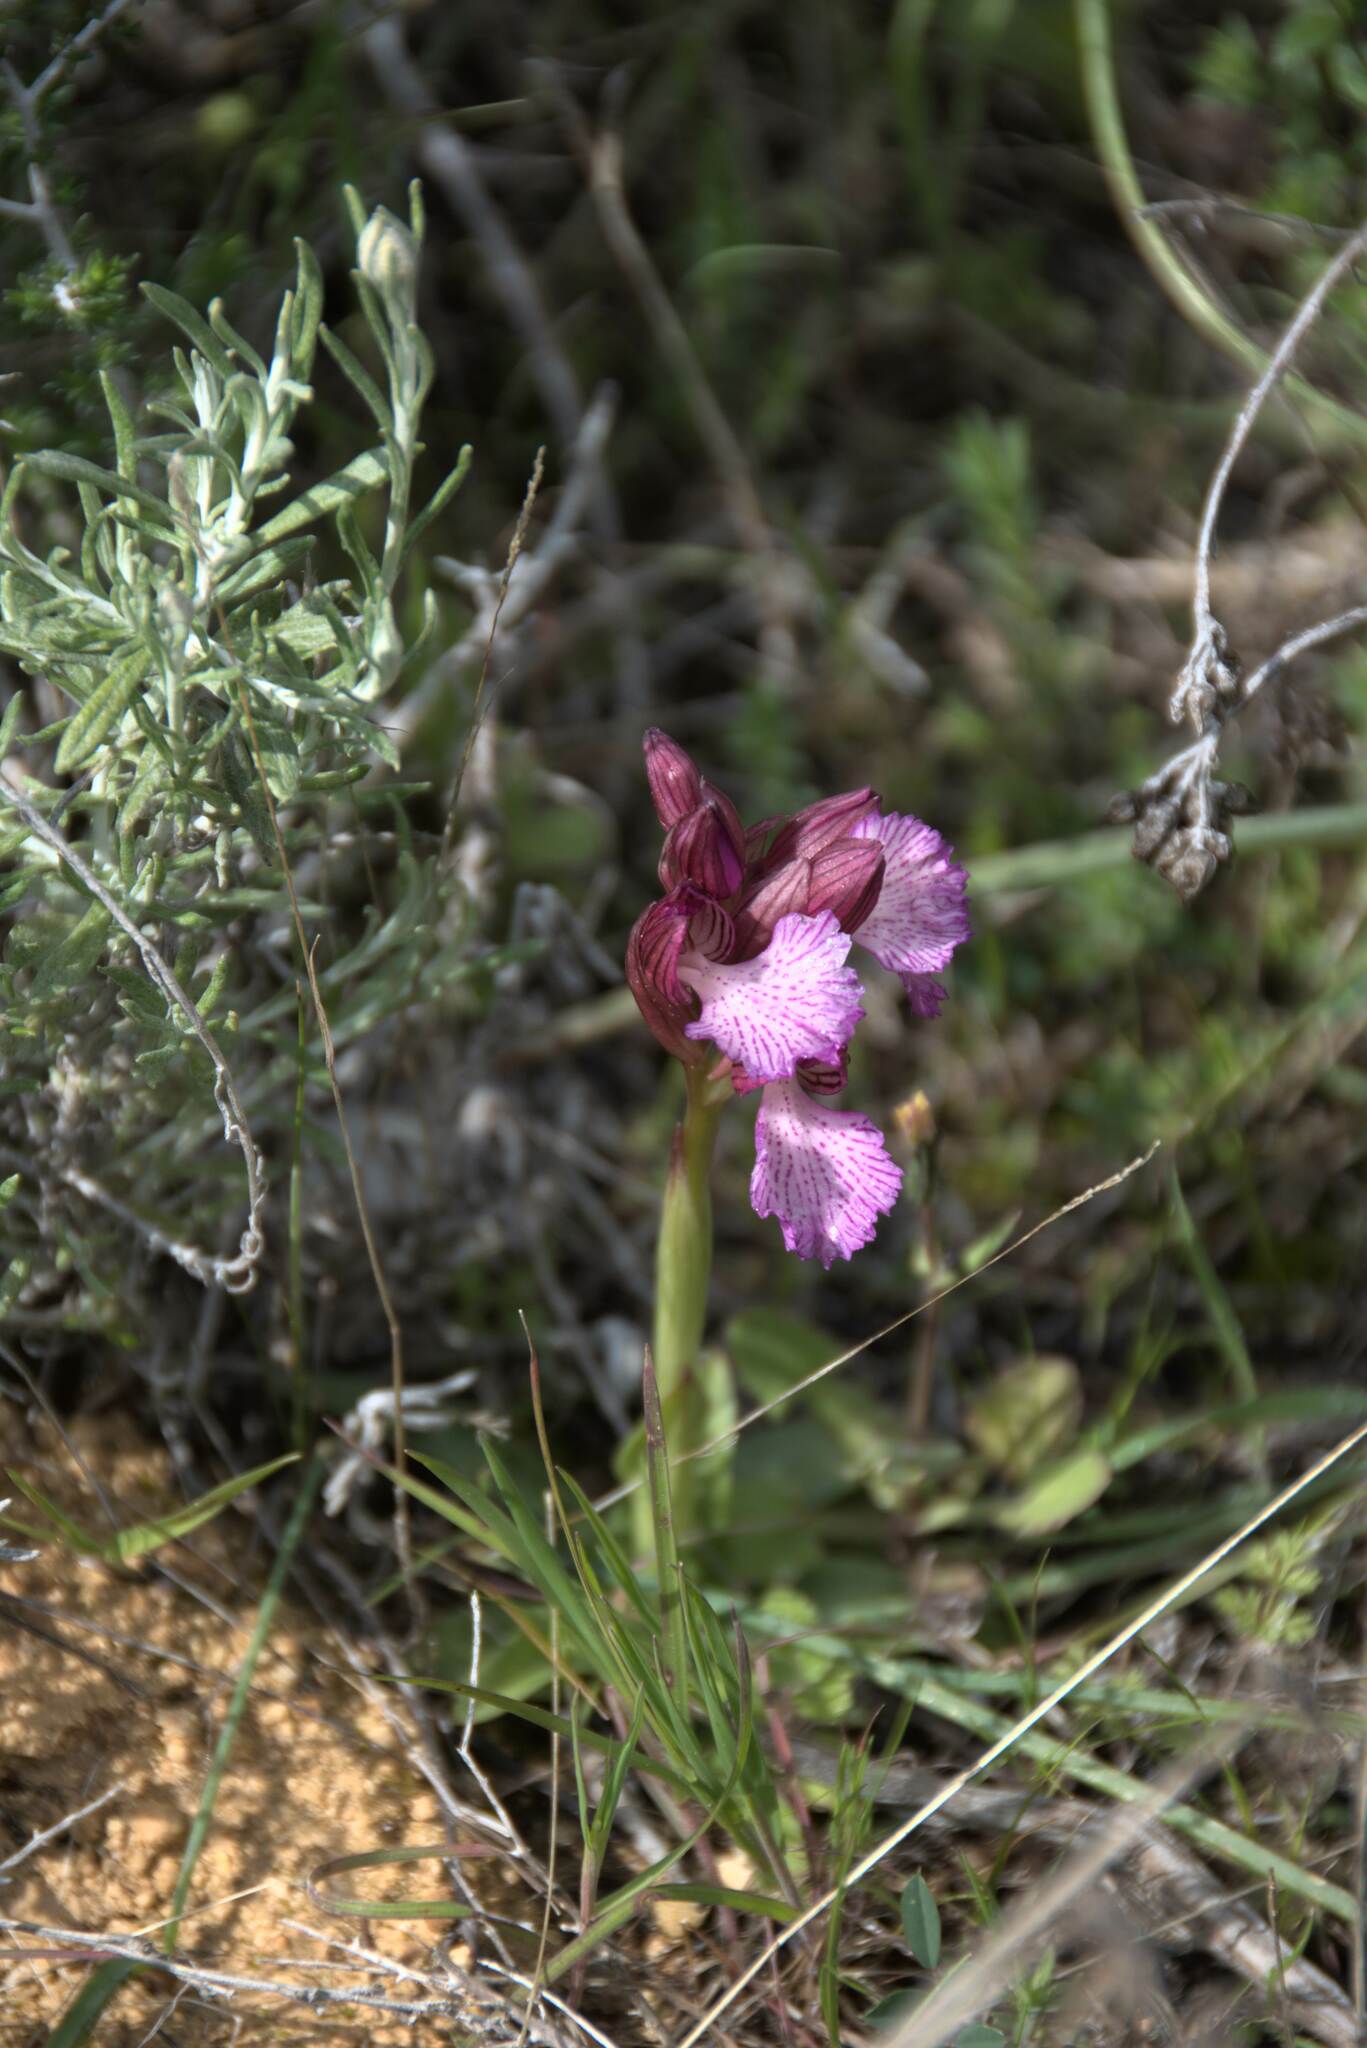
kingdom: Plantae
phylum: Tracheophyta
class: Liliopsida
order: Asparagales
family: Orchidaceae
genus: Anacamptis
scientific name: Anacamptis papilionacea
